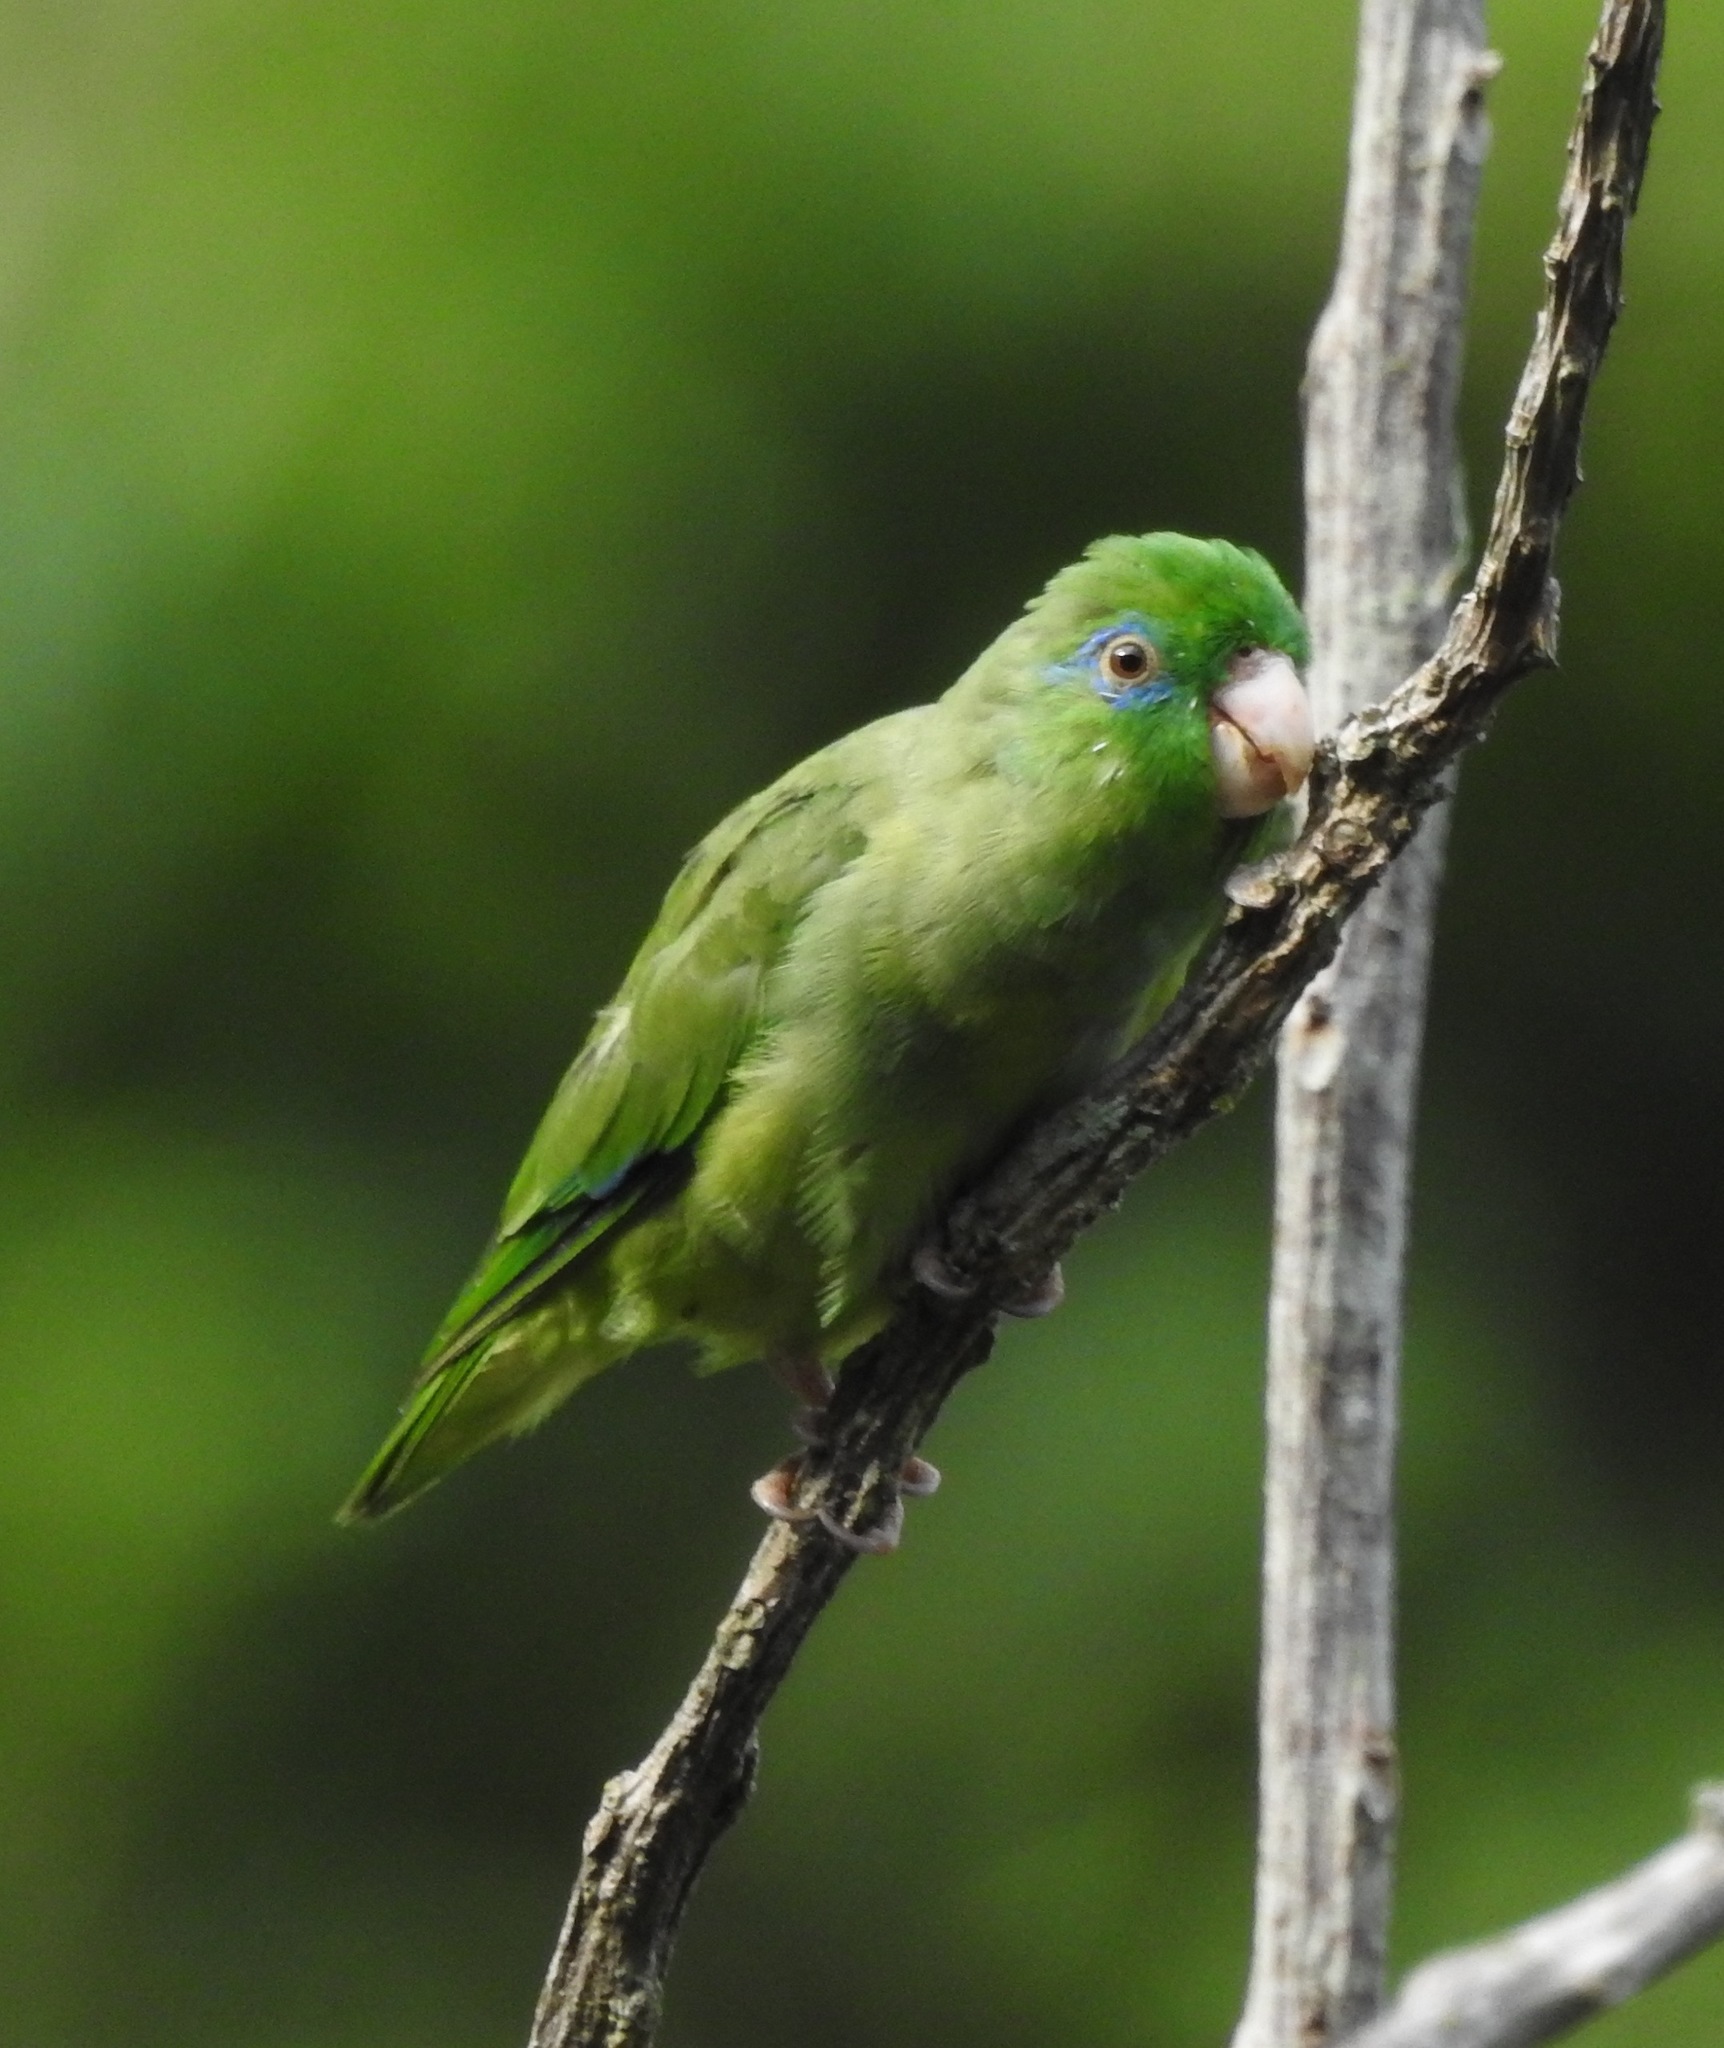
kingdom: Animalia
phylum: Chordata
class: Aves
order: Psittaciformes
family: Psittacidae
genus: Forpus
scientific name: Forpus conspicillatus
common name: Spectacled parrotlet
